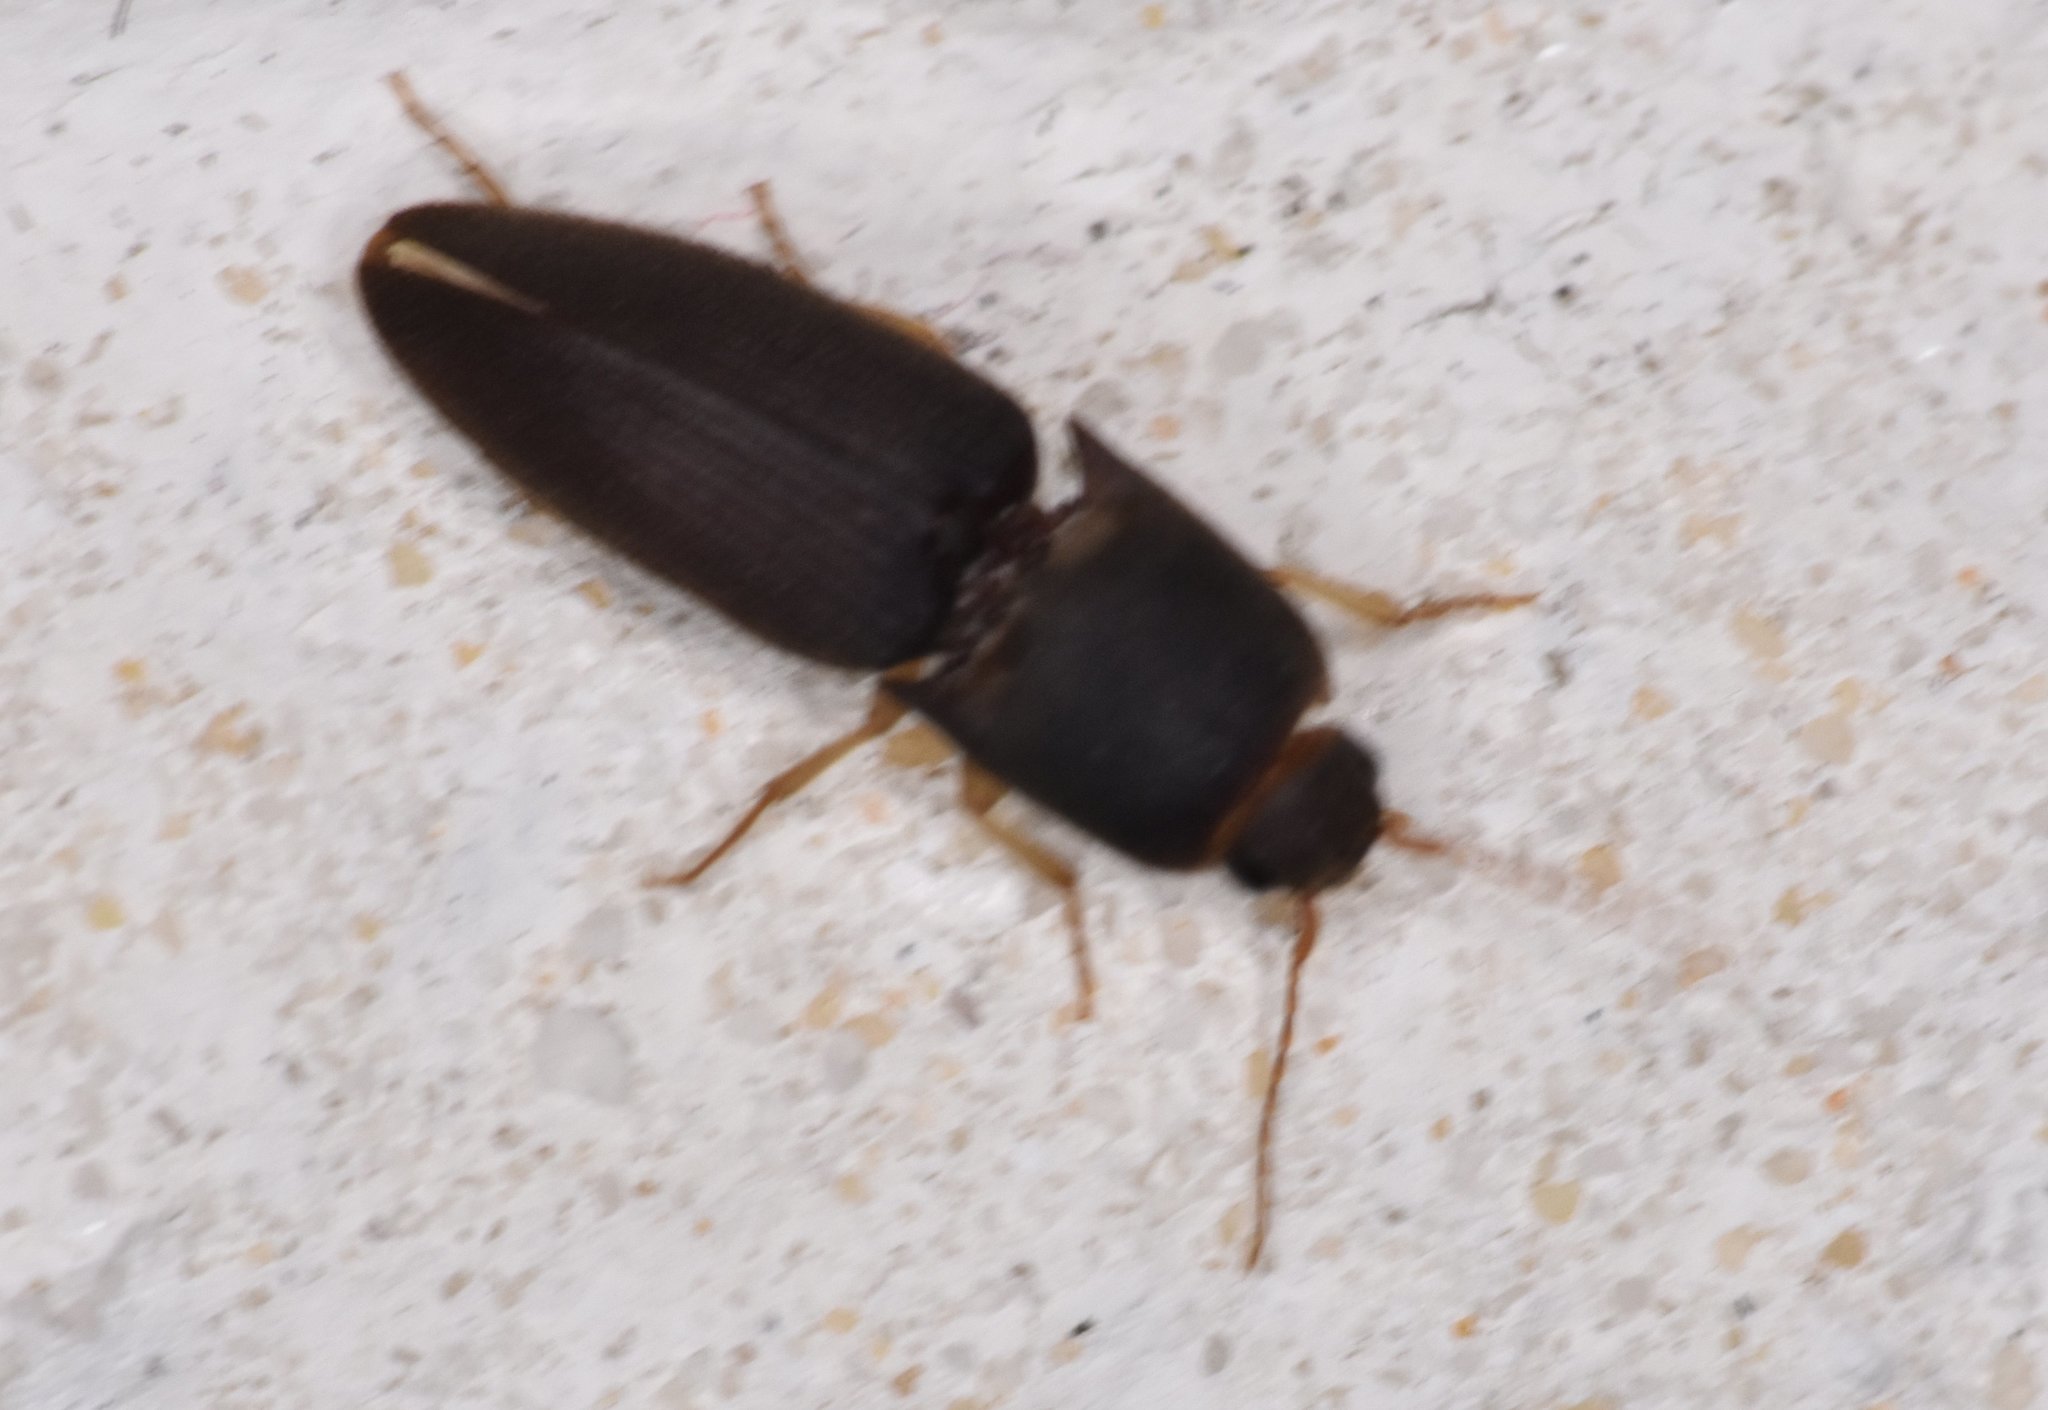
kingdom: Animalia
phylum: Arthropoda
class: Insecta
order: Coleoptera
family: Elateridae
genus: Heteroderes
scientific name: Heteroderes amplicollis
